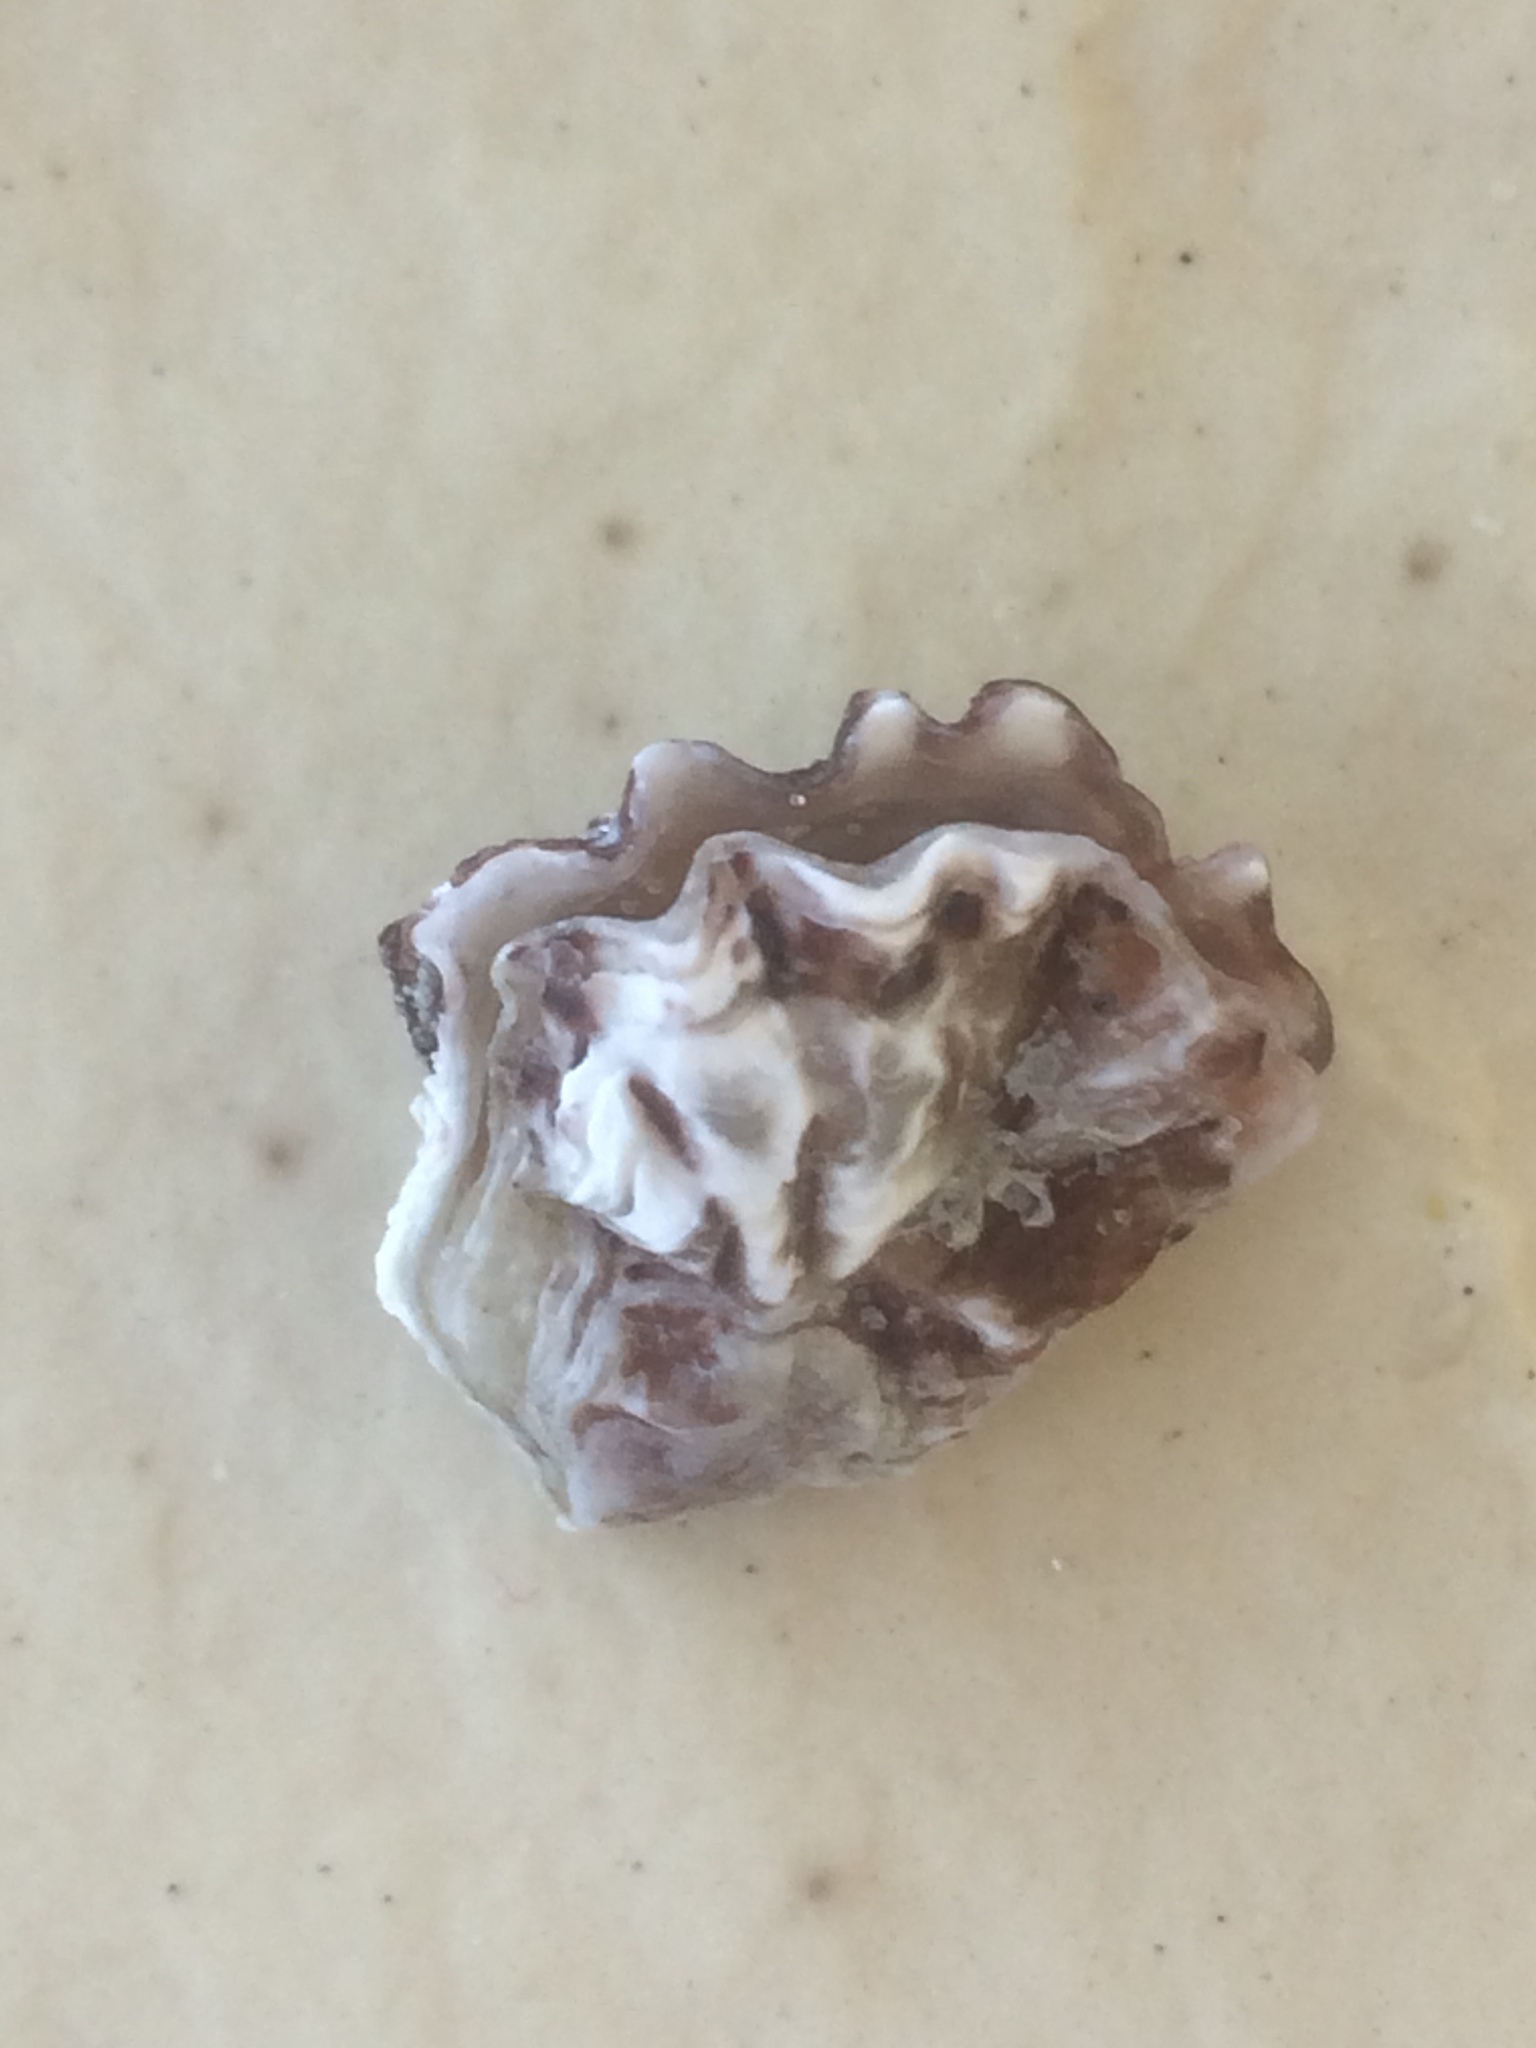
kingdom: Animalia
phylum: Mollusca
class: Bivalvia
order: Ostreida
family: Ostreidae
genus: Ostrea
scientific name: Ostrea equestris
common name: Crested oyster
